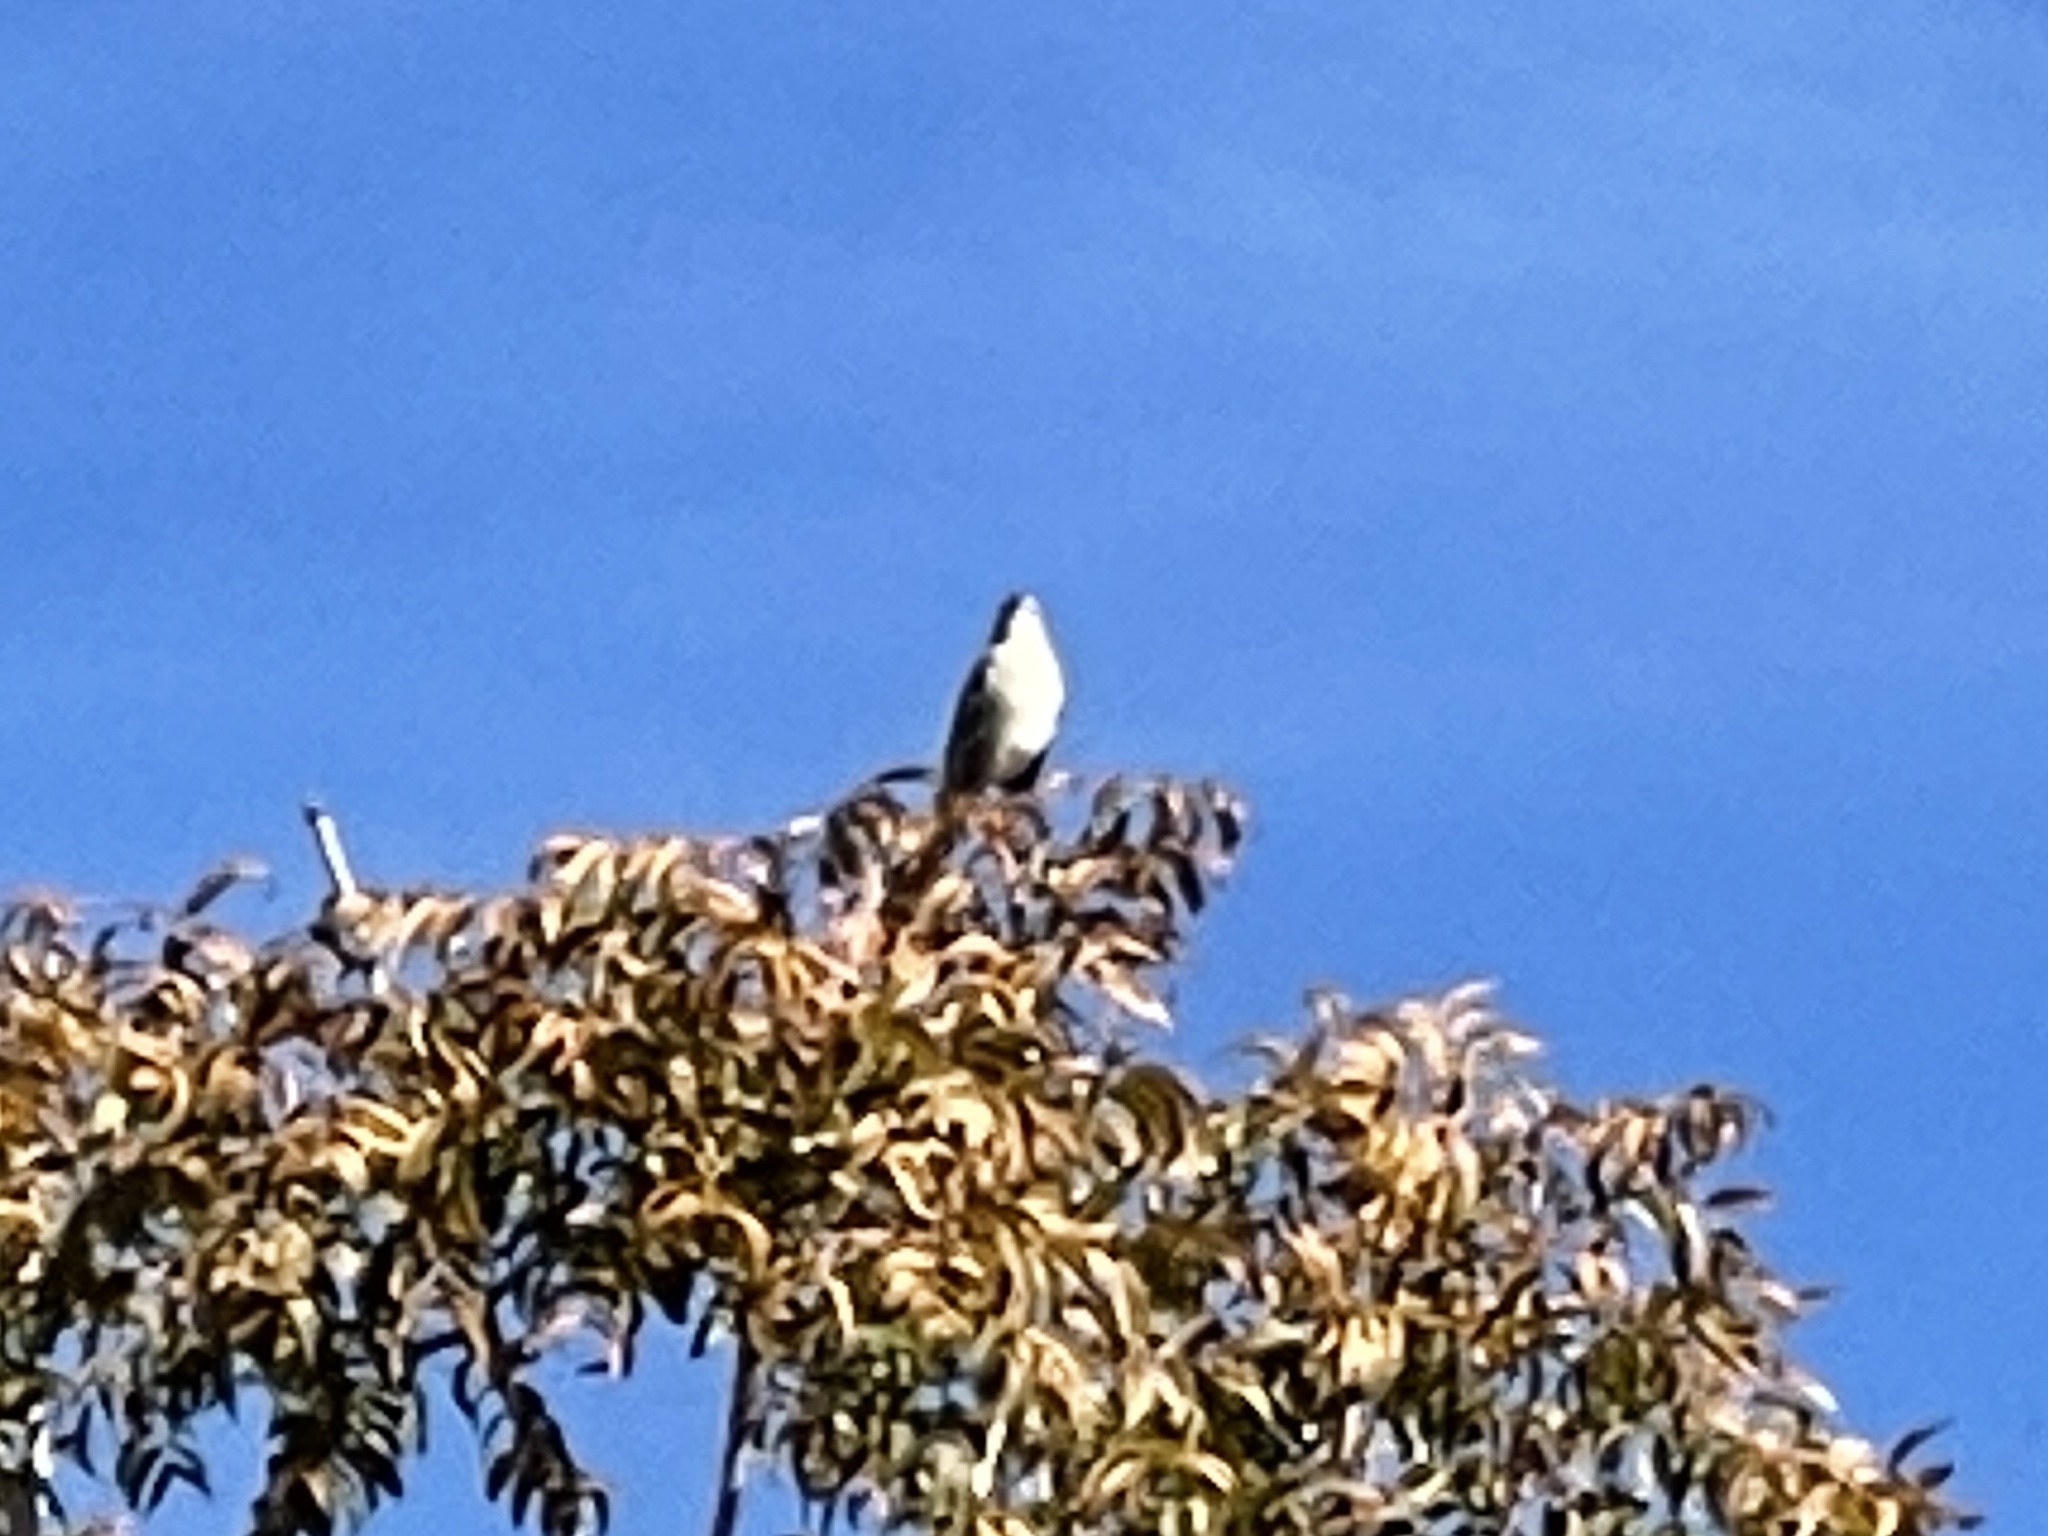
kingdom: Animalia
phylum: Chordata
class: Aves
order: Passeriformes
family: Mimidae
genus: Mimus
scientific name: Mimus polyglottos
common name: Northern mockingbird
